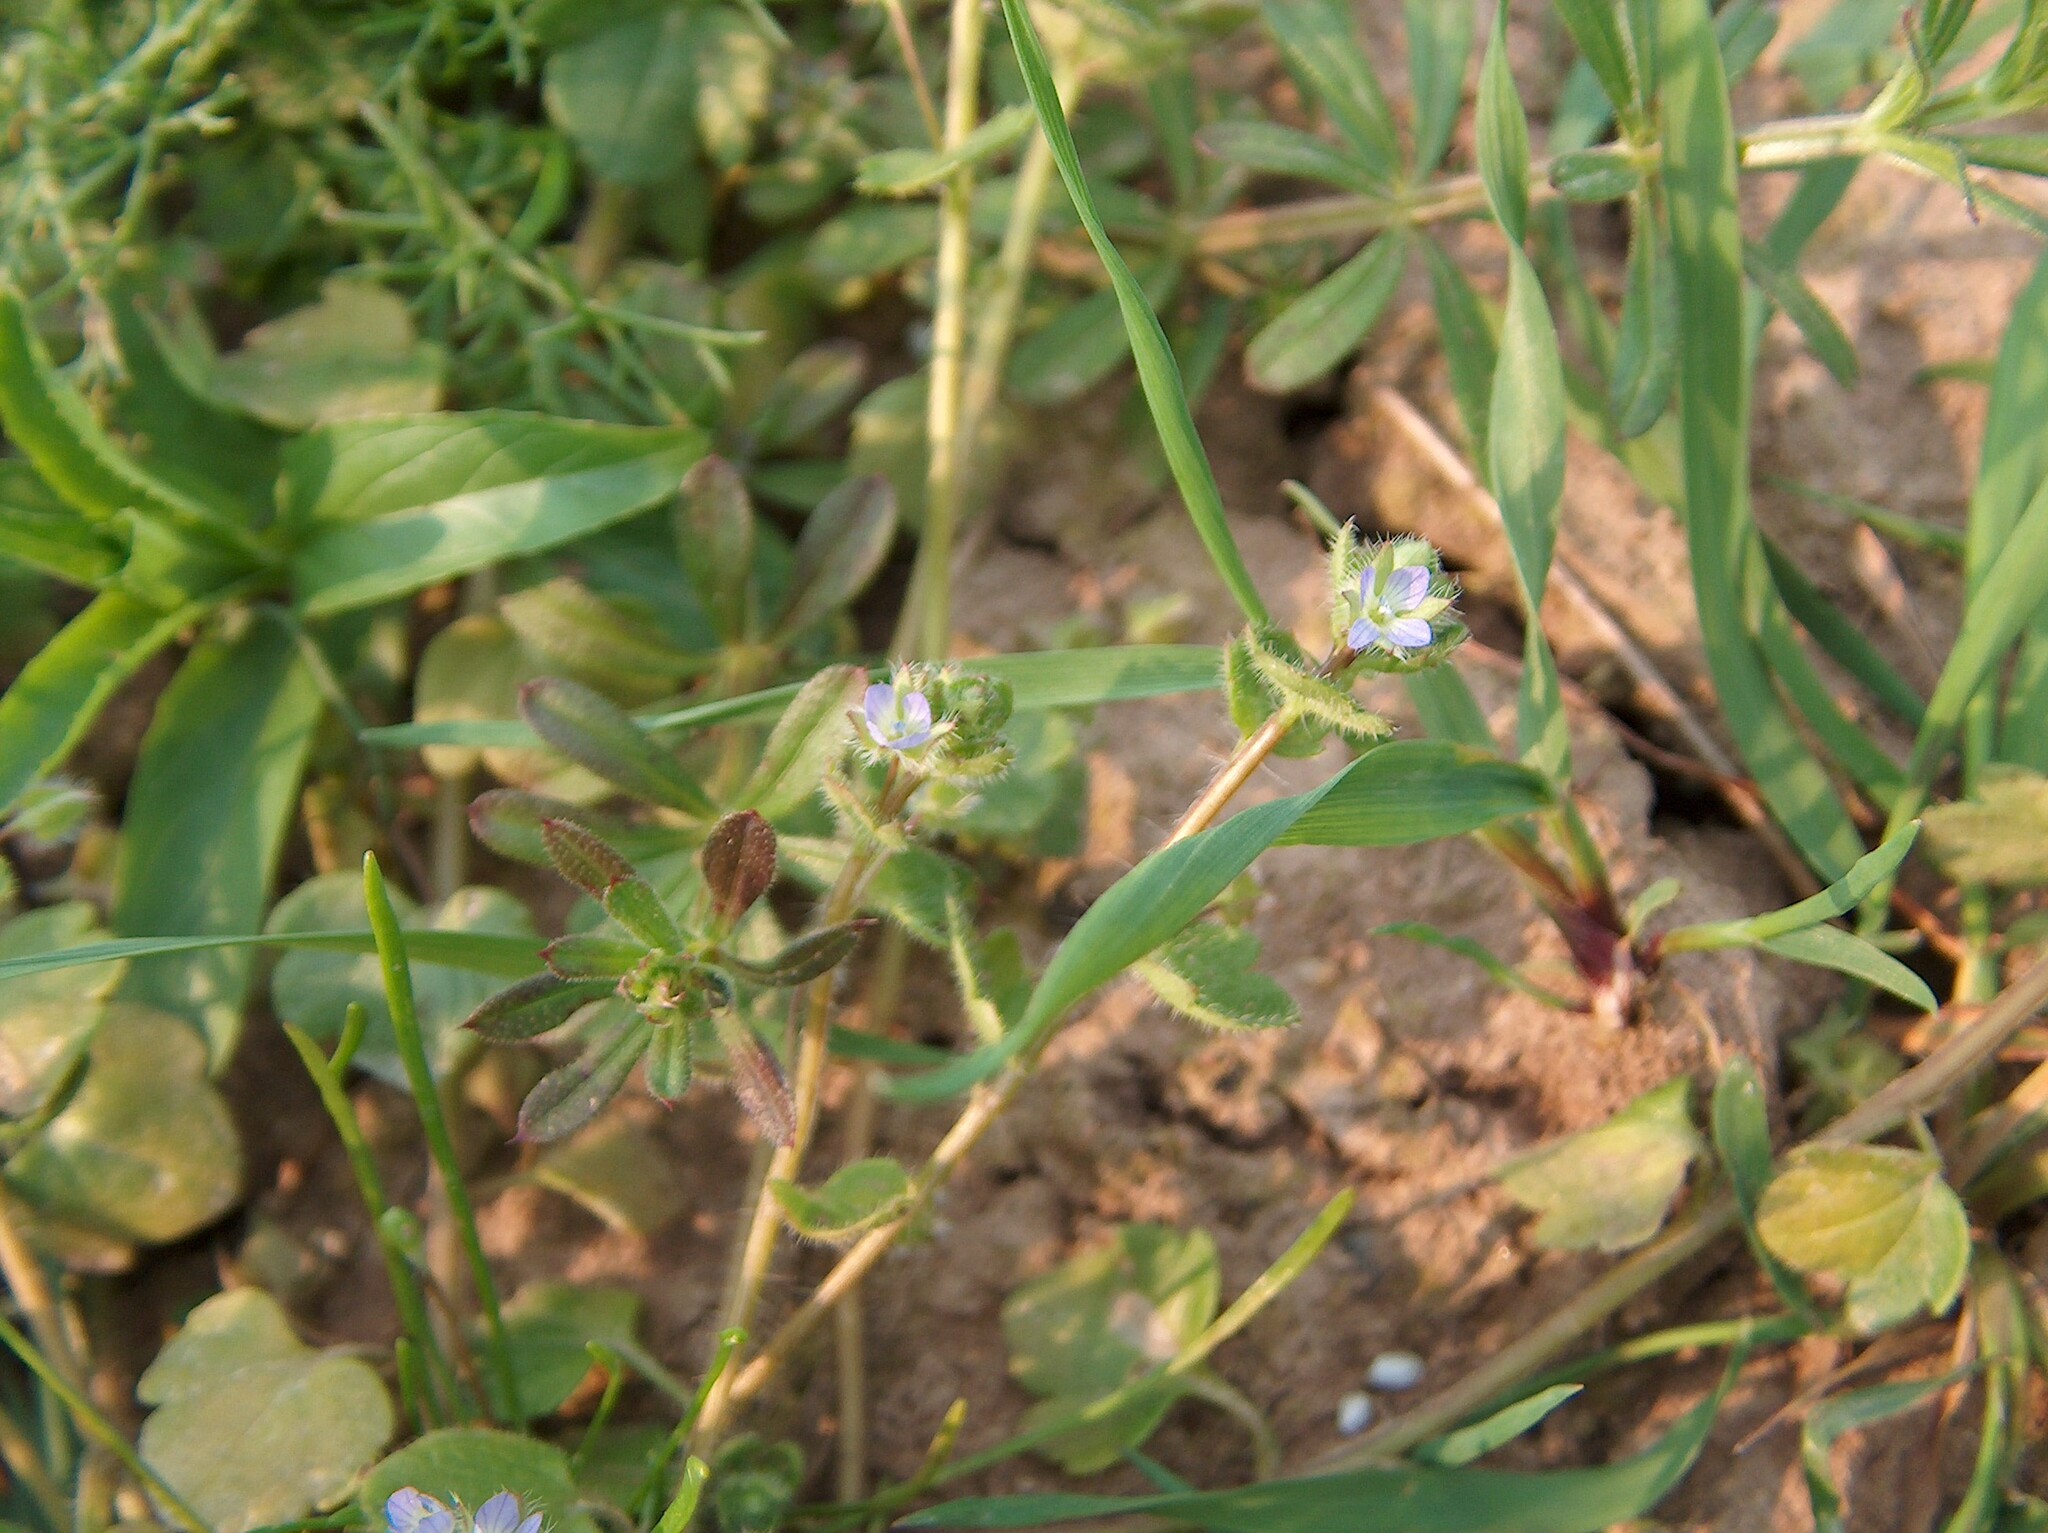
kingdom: Plantae
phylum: Tracheophyta
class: Magnoliopsida
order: Lamiales
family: Plantaginaceae
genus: Veronica
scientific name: Veronica hederifolia
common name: Ivy-leaved speedwell
